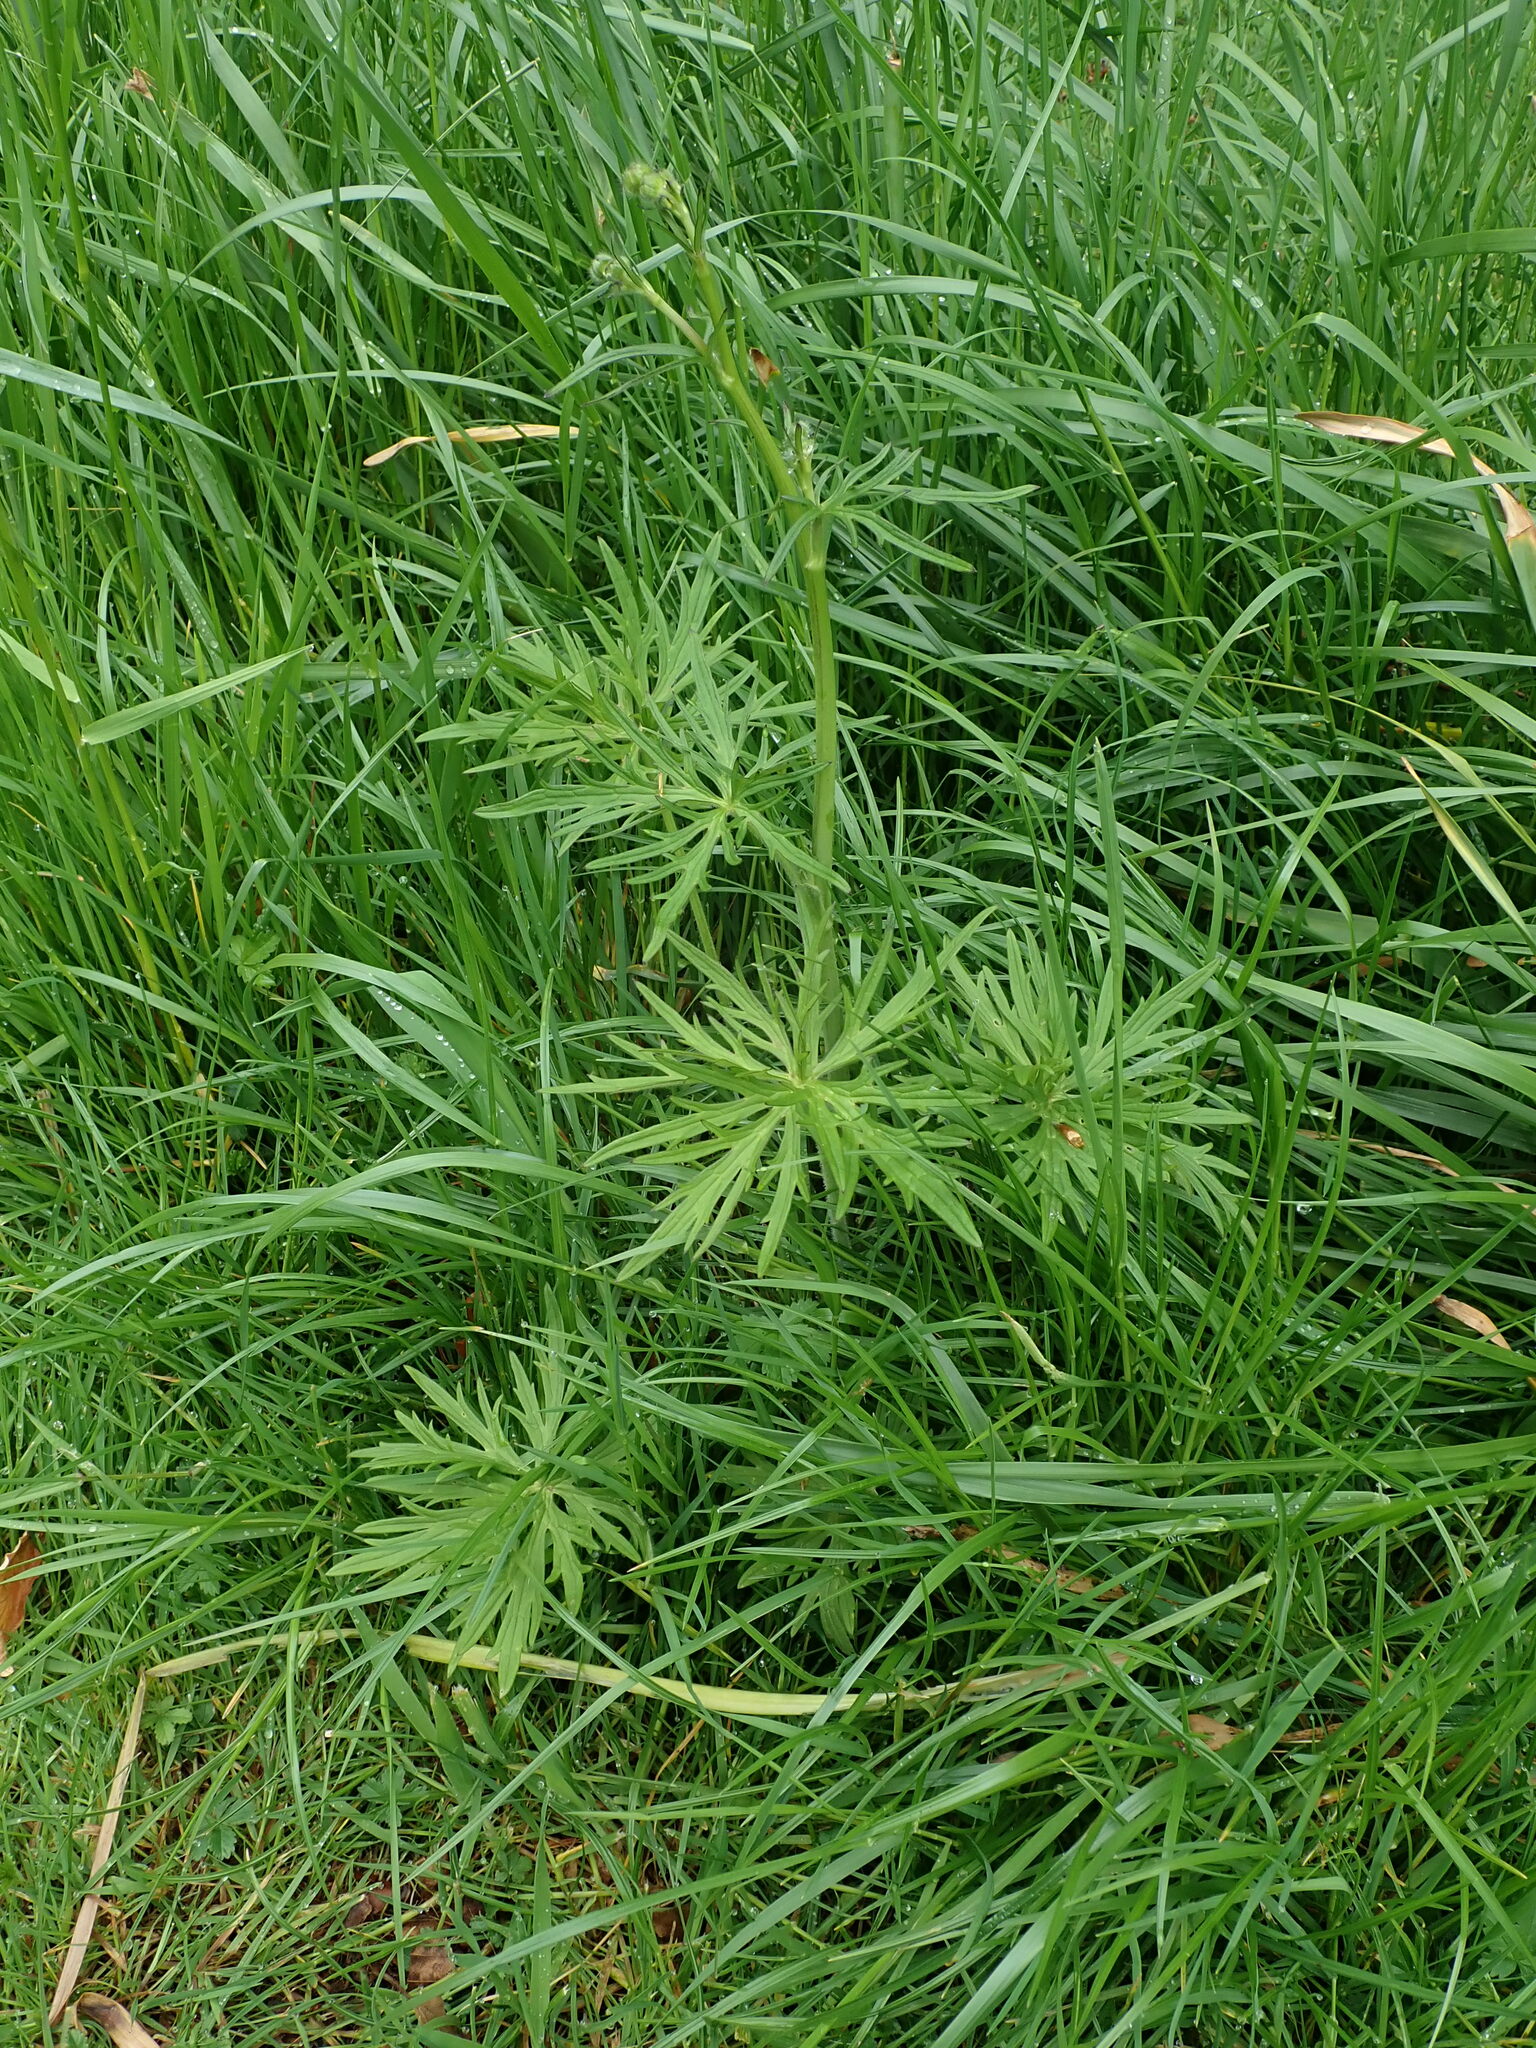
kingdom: Plantae
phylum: Tracheophyta
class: Magnoliopsida
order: Ranunculales
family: Ranunculaceae
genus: Ranunculus
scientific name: Ranunculus acris
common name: Meadow buttercup
